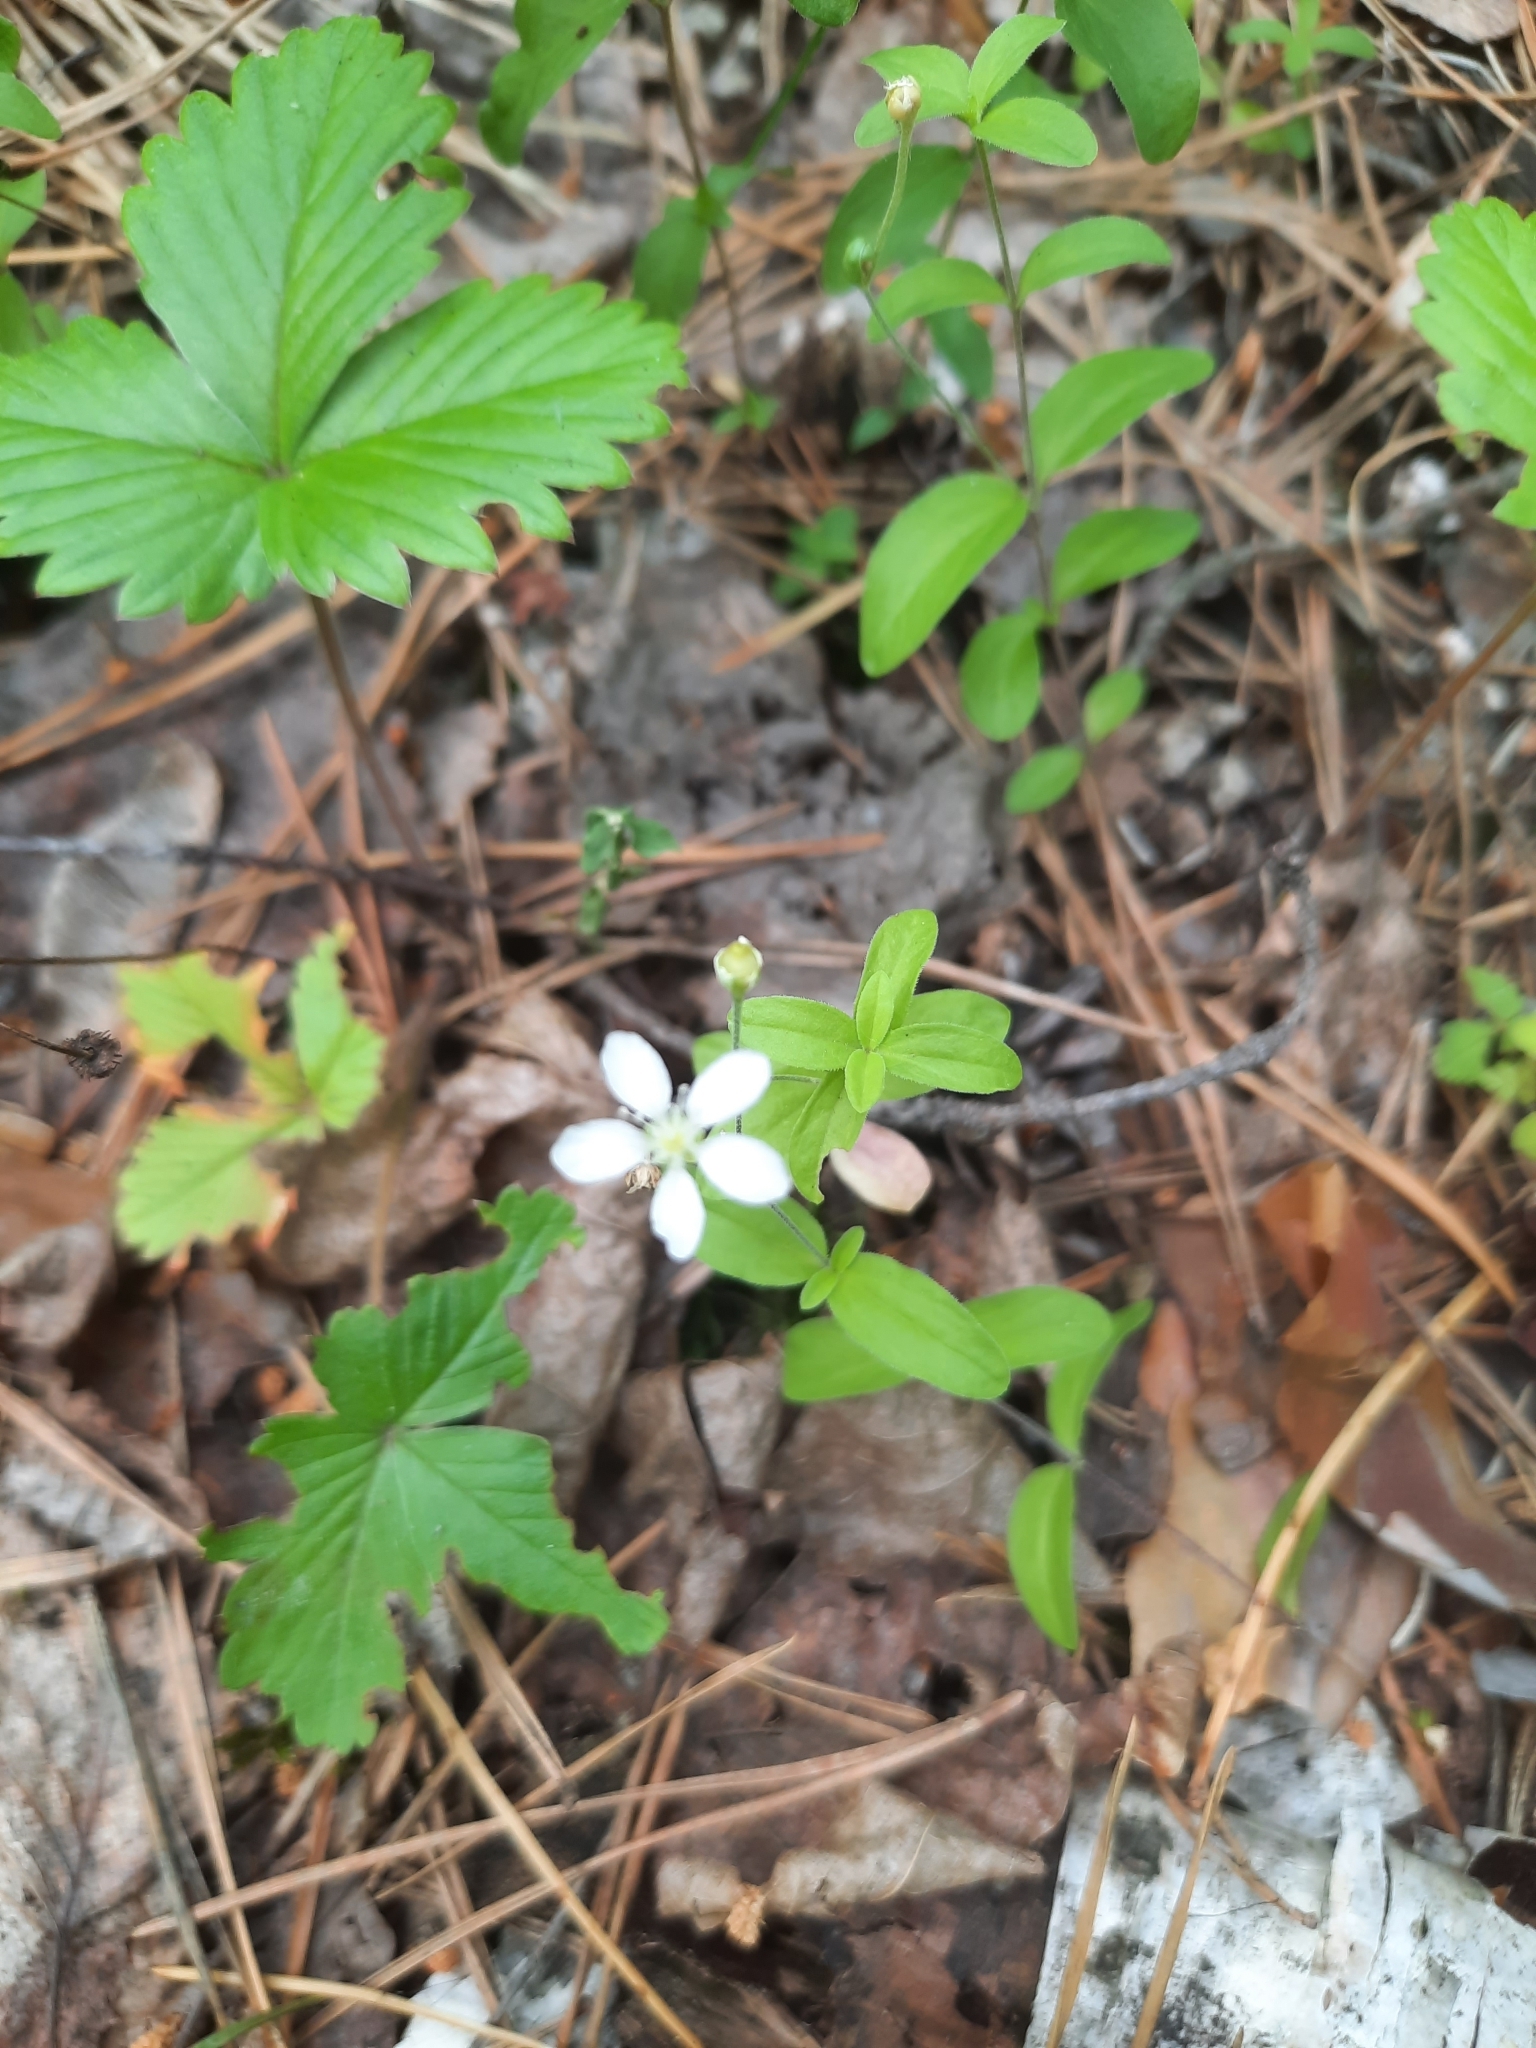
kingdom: Plantae
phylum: Tracheophyta
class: Magnoliopsida
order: Caryophyllales
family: Caryophyllaceae
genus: Moehringia
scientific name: Moehringia lateriflora
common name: Blunt-leaved sandwort
